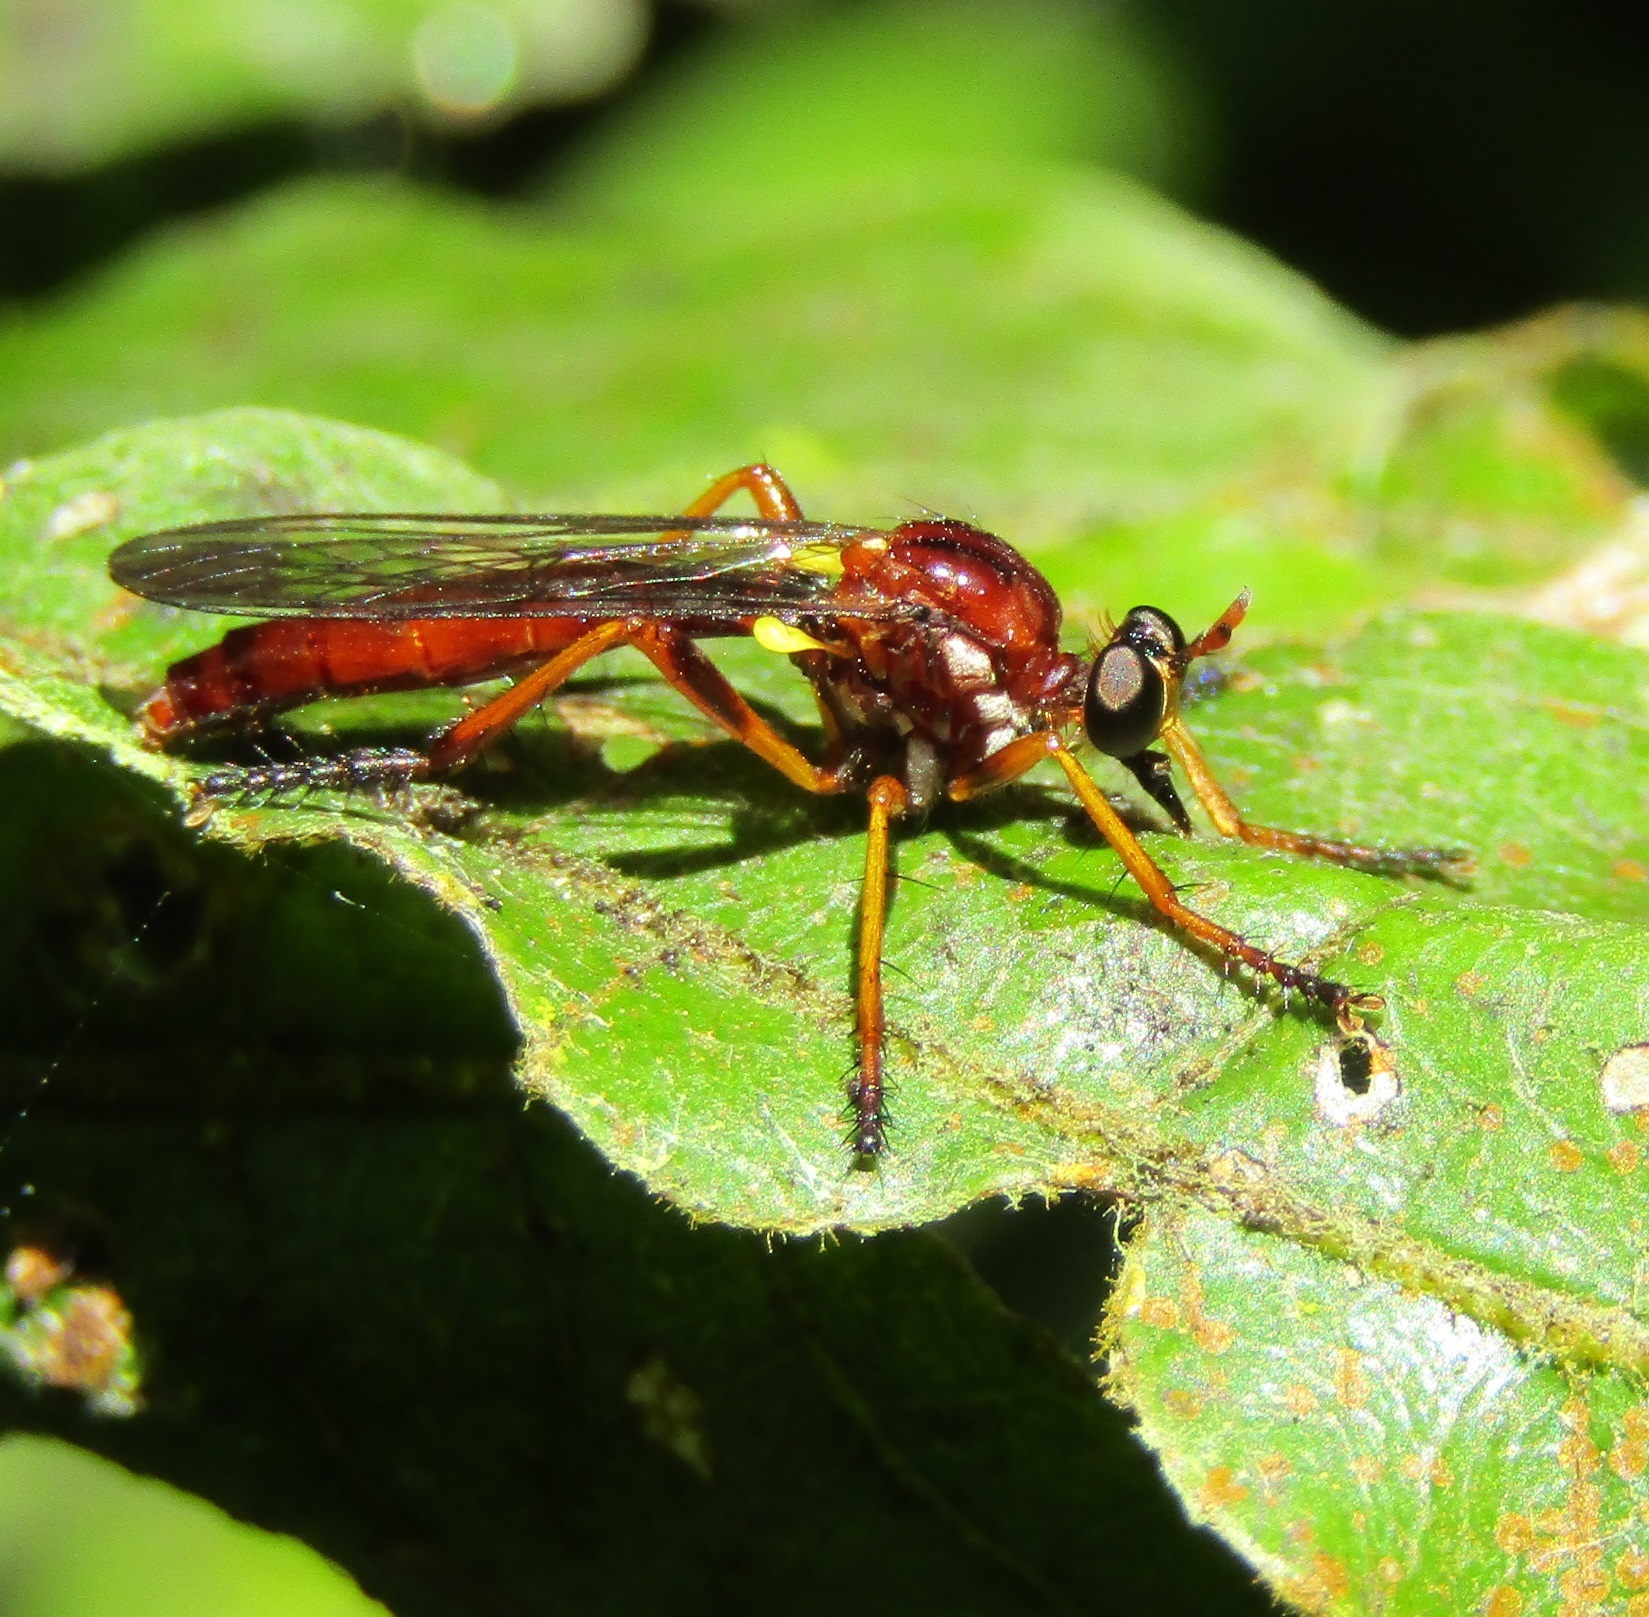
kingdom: Animalia
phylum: Arthropoda
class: Insecta
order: Diptera
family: Asilidae
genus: Saropogon
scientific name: Saropogon antipodus
